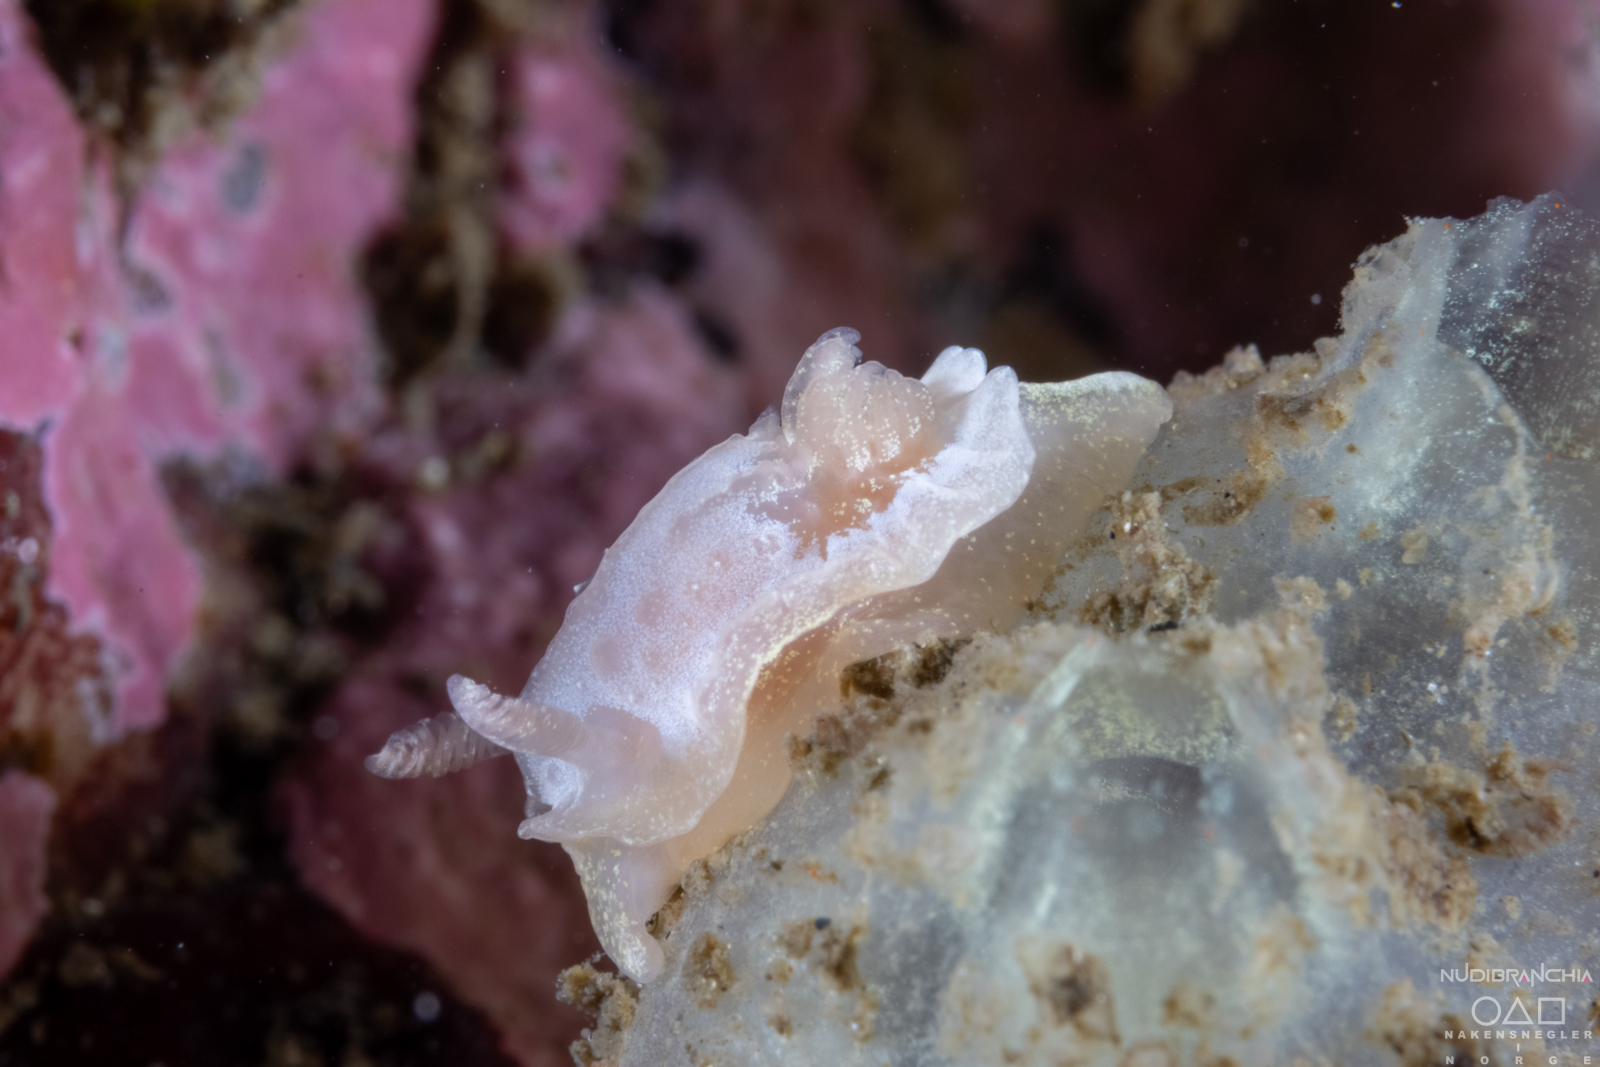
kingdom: Animalia
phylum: Mollusca
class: Gastropoda
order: Nudibranchia
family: Goniodorididae
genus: Okenia
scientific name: Okenia
